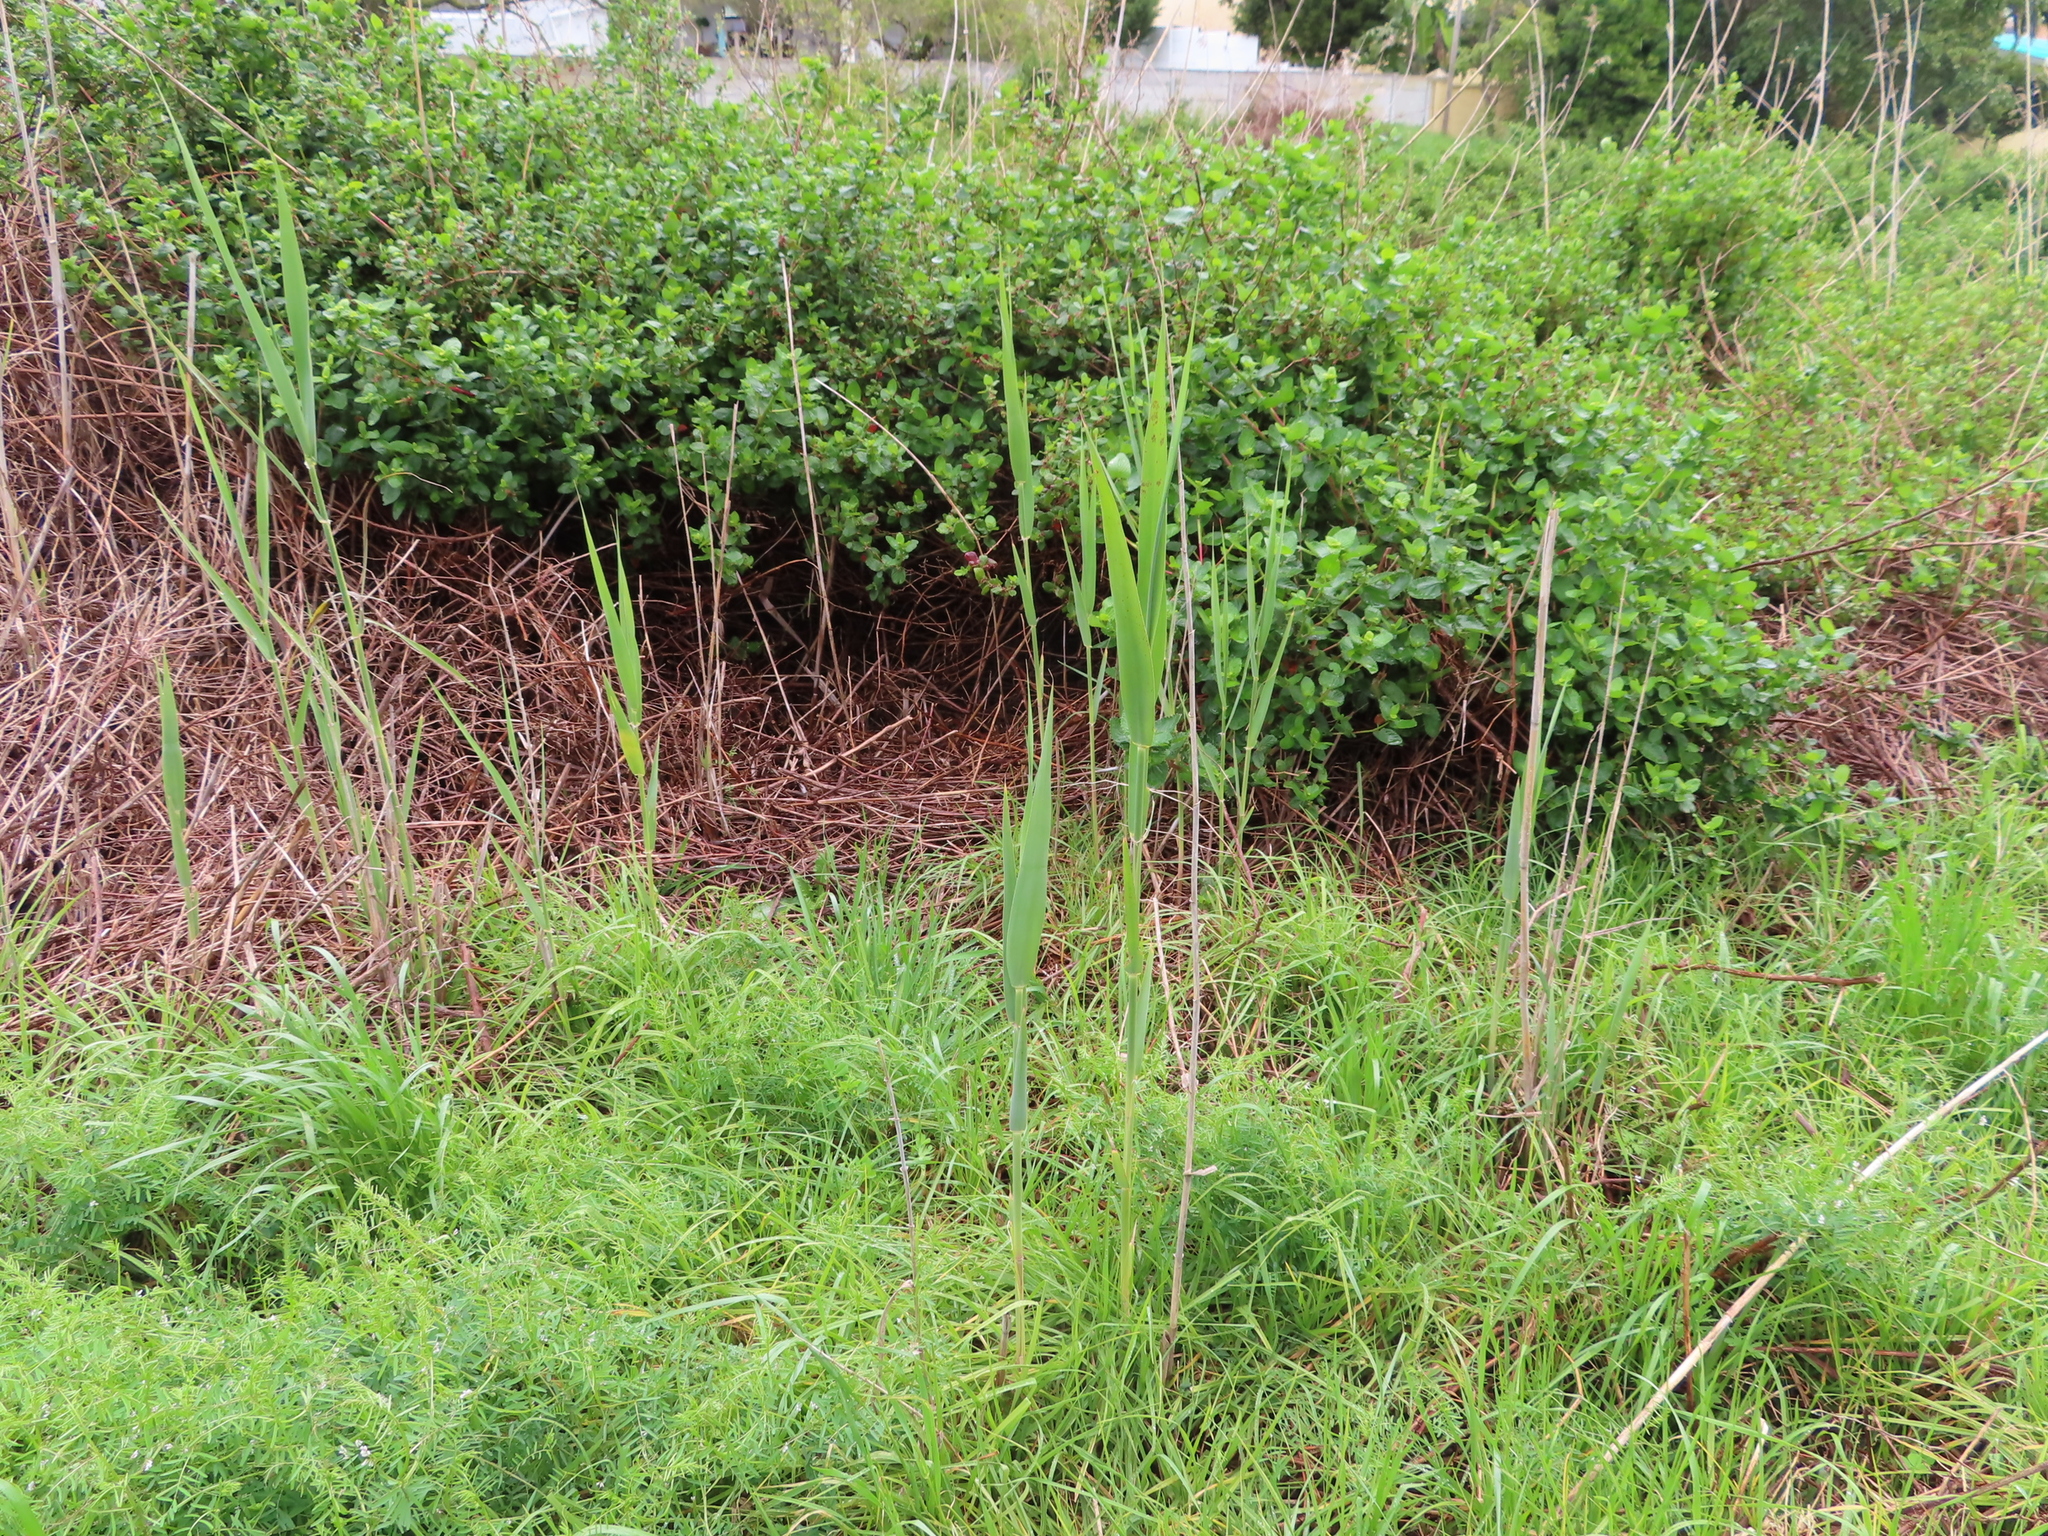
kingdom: Plantae
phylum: Tracheophyta
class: Liliopsida
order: Poales
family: Poaceae
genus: Phragmites
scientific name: Phragmites australis
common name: Common reed
